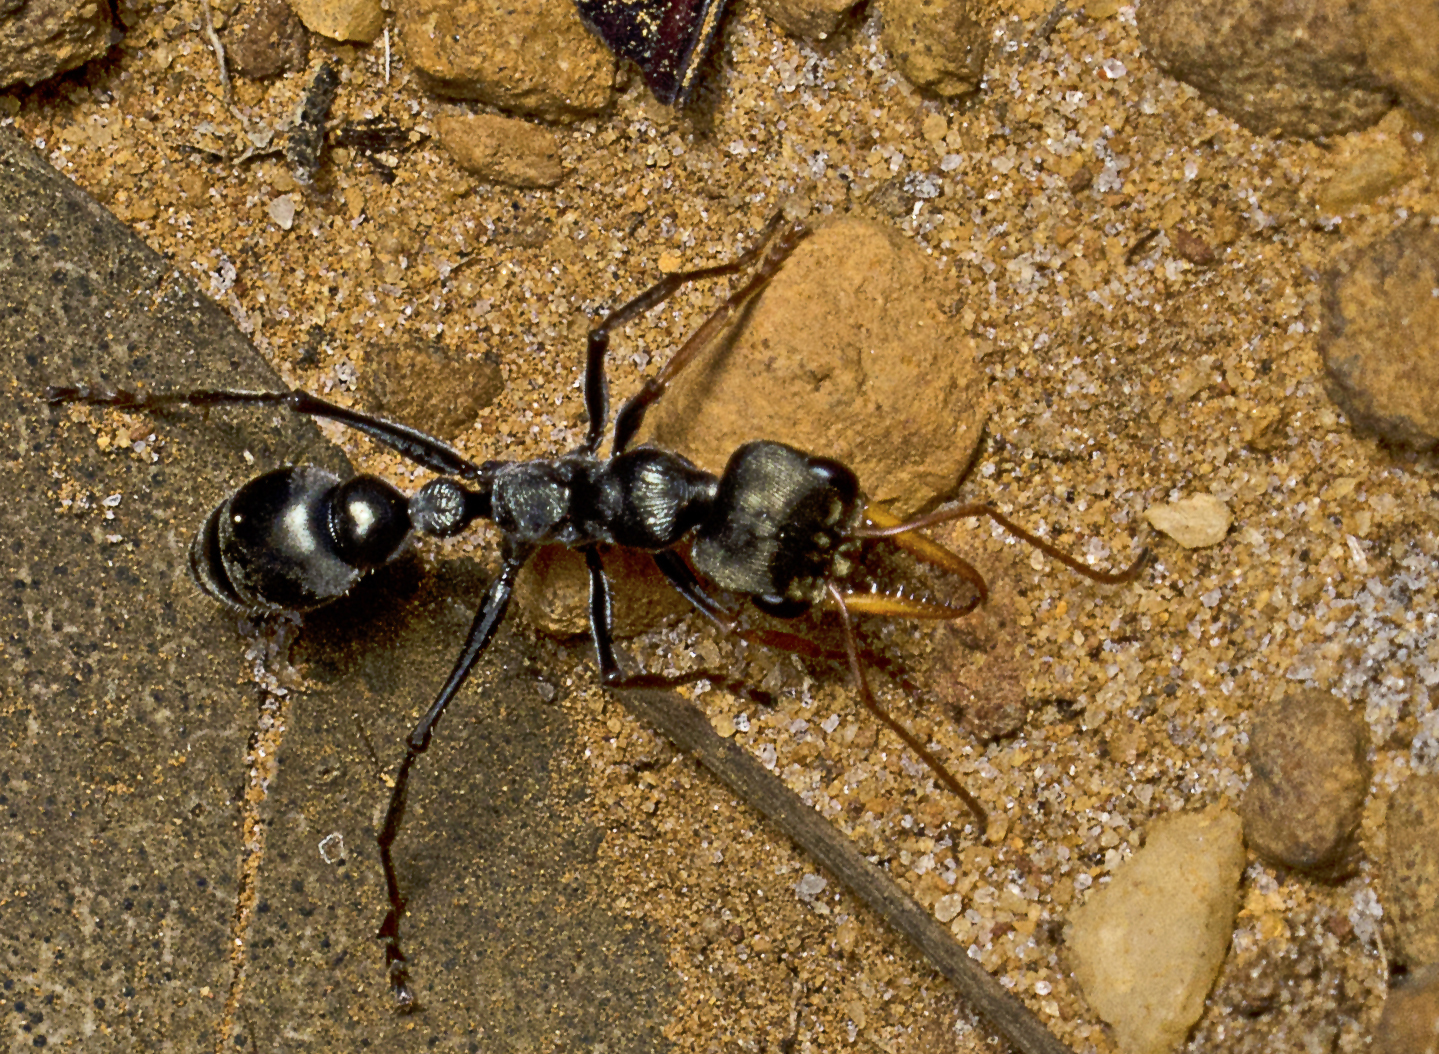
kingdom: Animalia
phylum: Arthropoda
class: Insecta
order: Hymenoptera
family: Formicidae
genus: Myrmecia
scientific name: Myrmecia imaii
